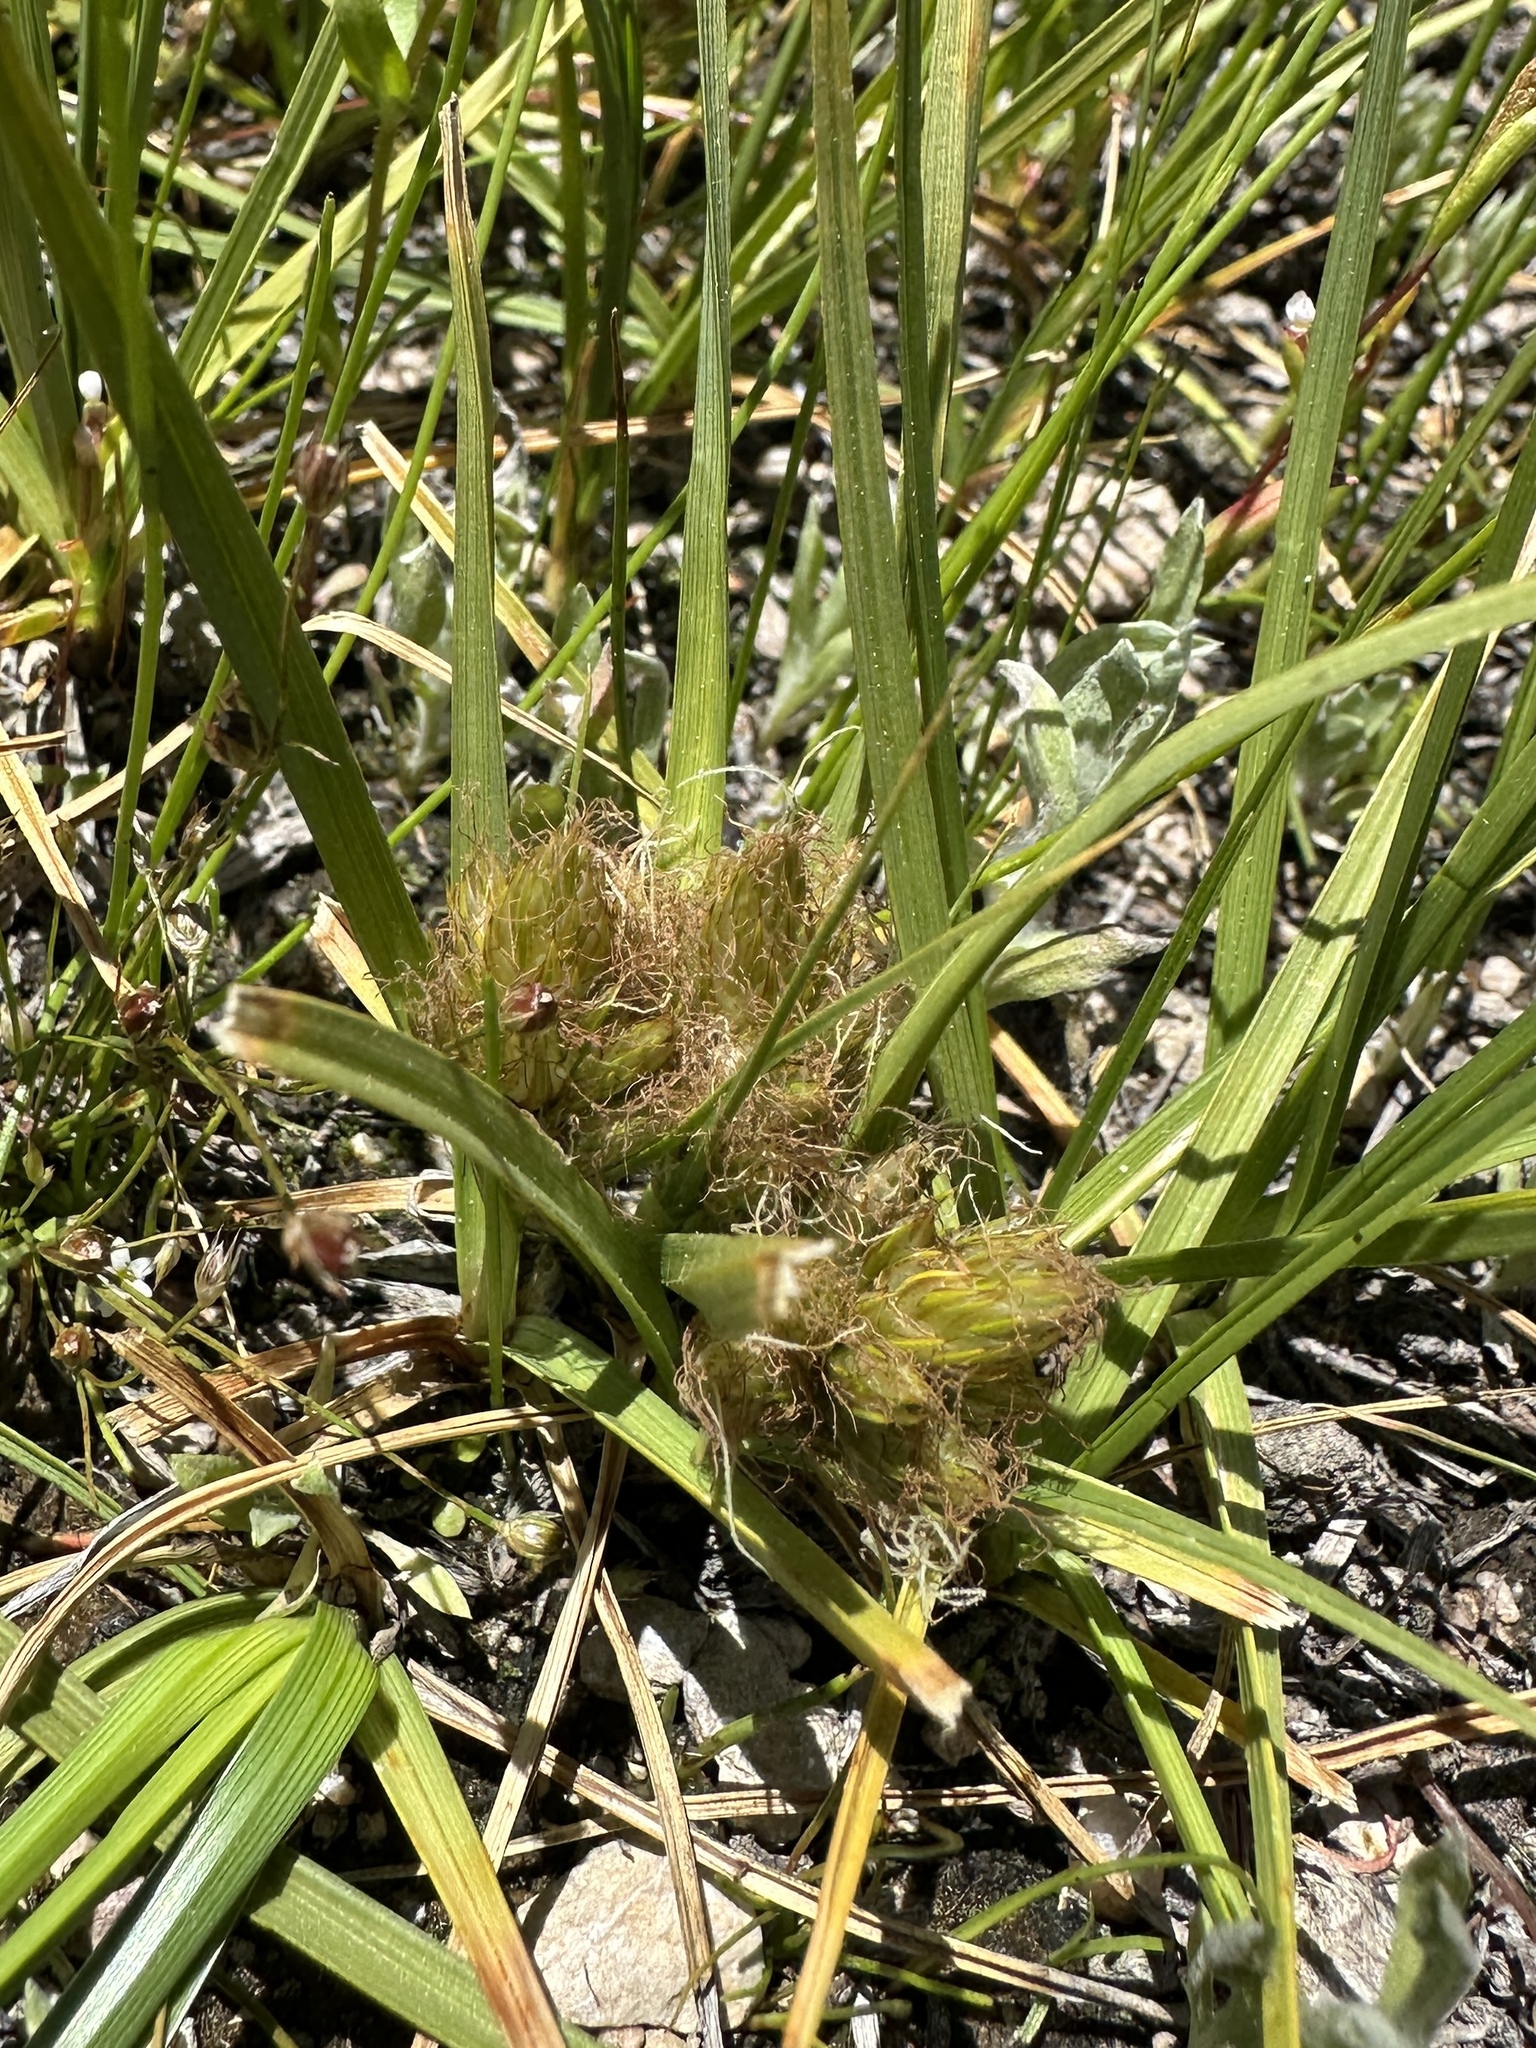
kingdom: Plantae
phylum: Tracheophyta
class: Liliopsida
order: Poales
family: Cyperaceae
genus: Carex
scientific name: Carex douglasii
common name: Douglas' sedge
